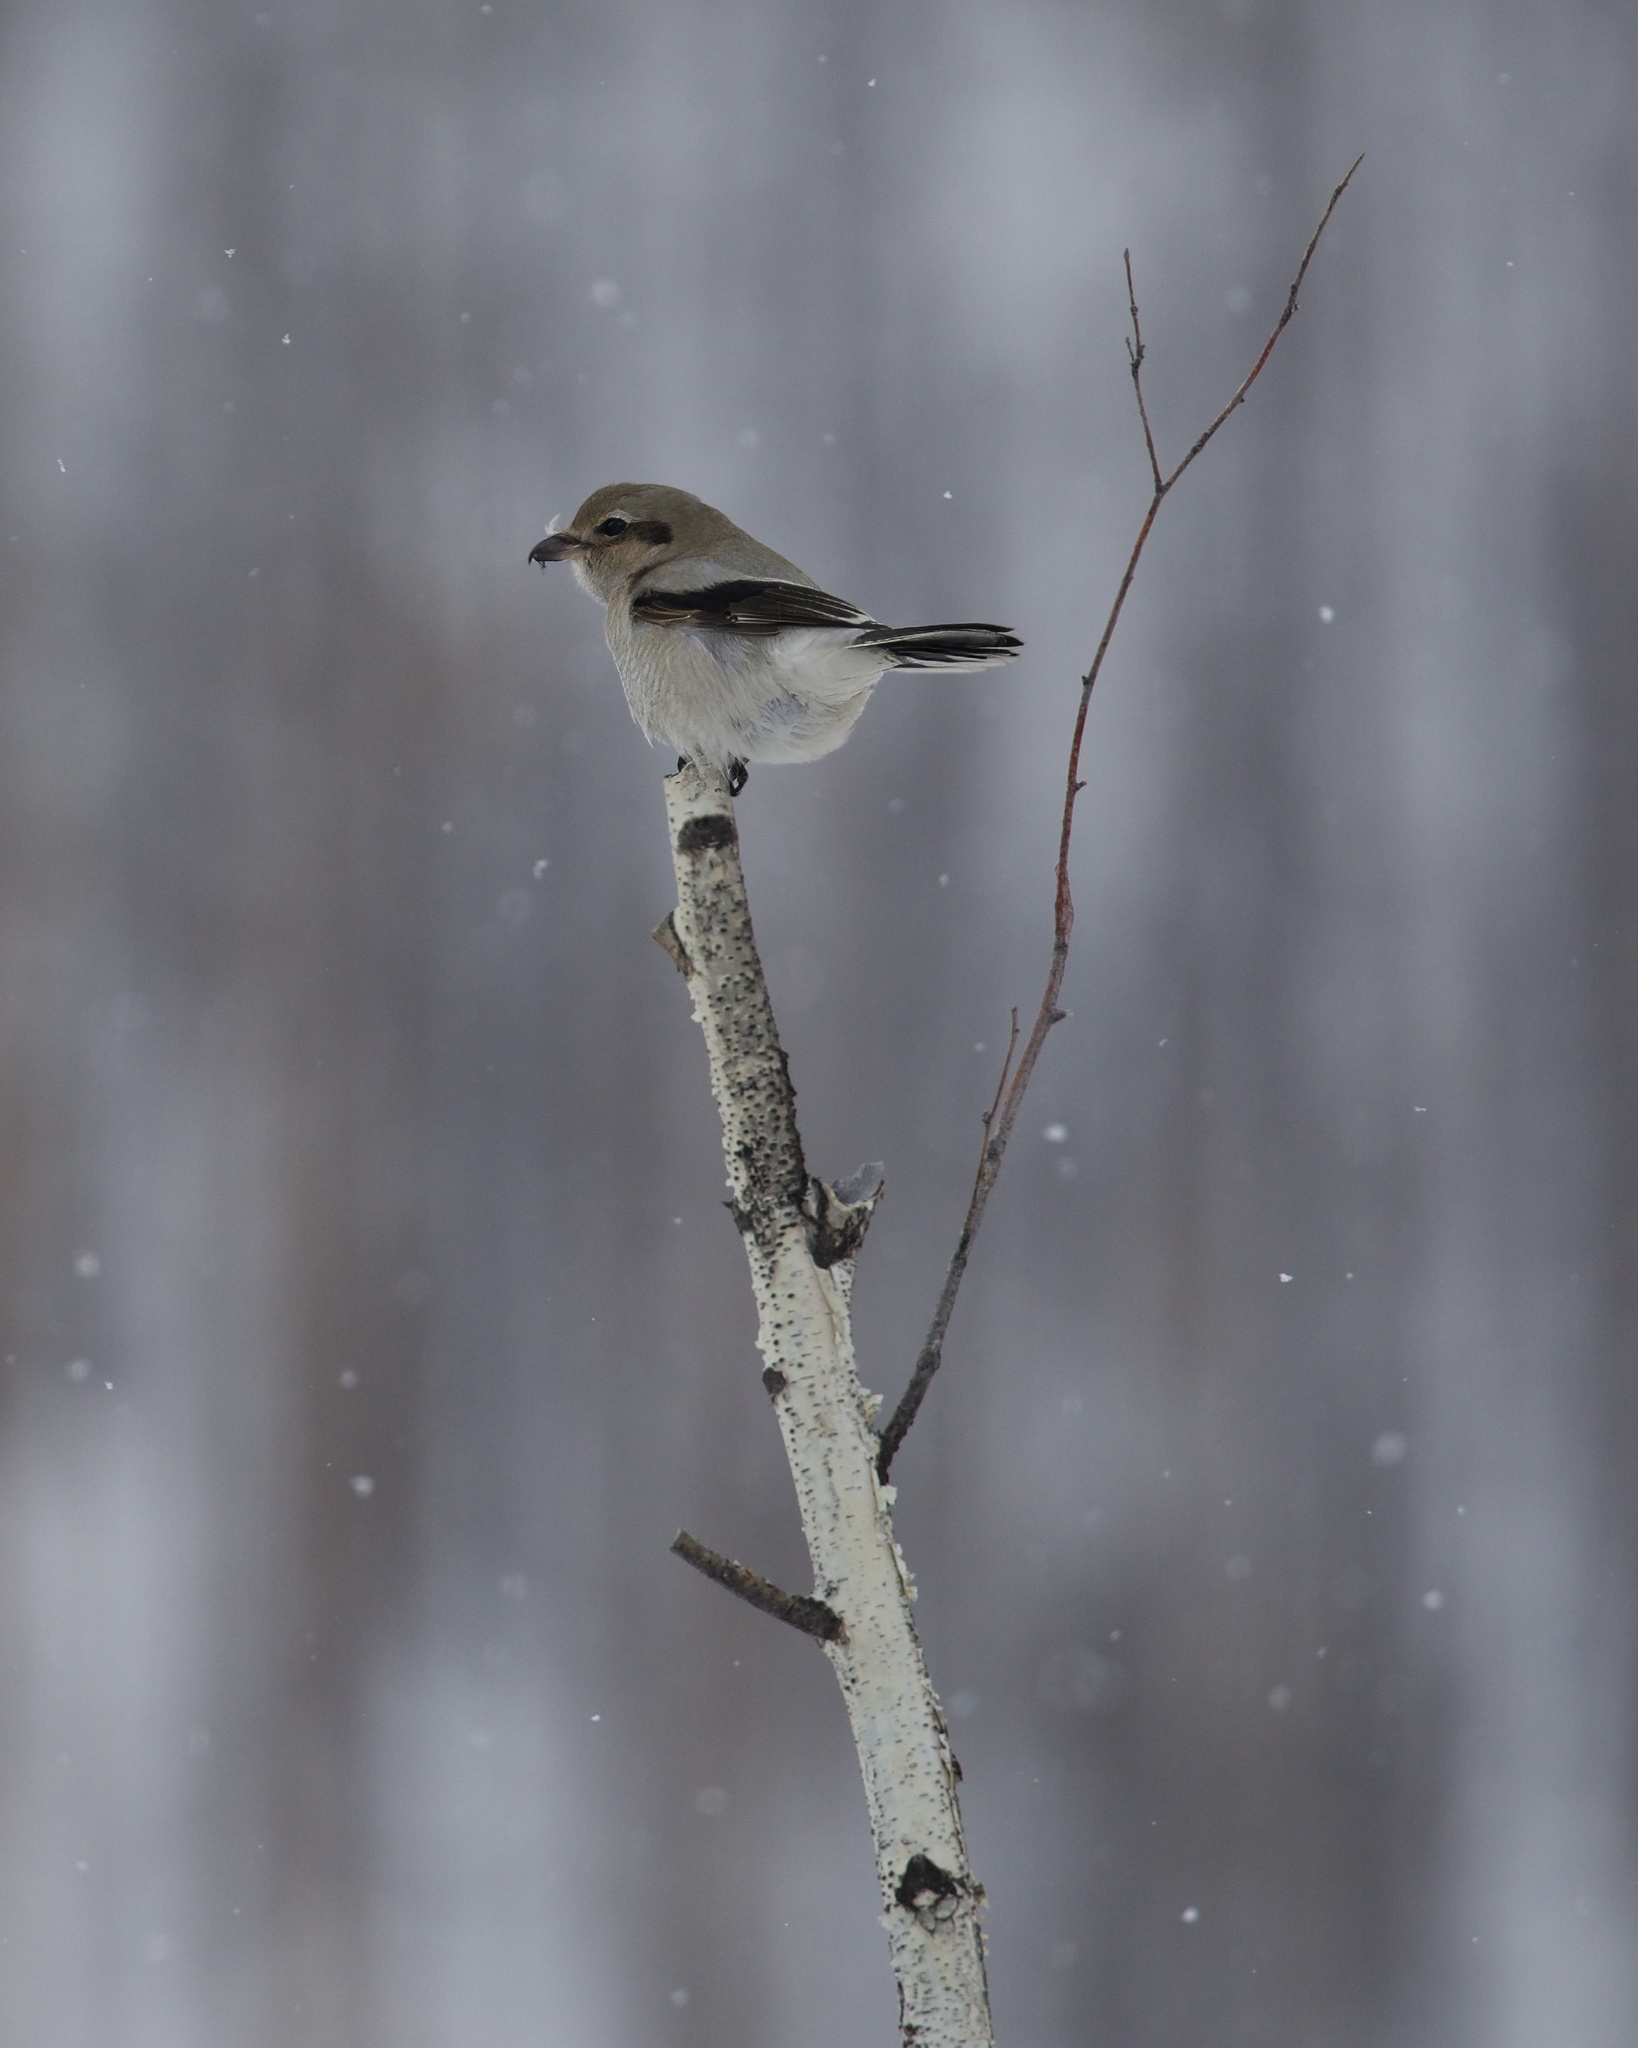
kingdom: Animalia
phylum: Chordata
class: Aves
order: Passeriformes
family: Laniidae
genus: Lanius
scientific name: Lanius borealis
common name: Northern shrike
